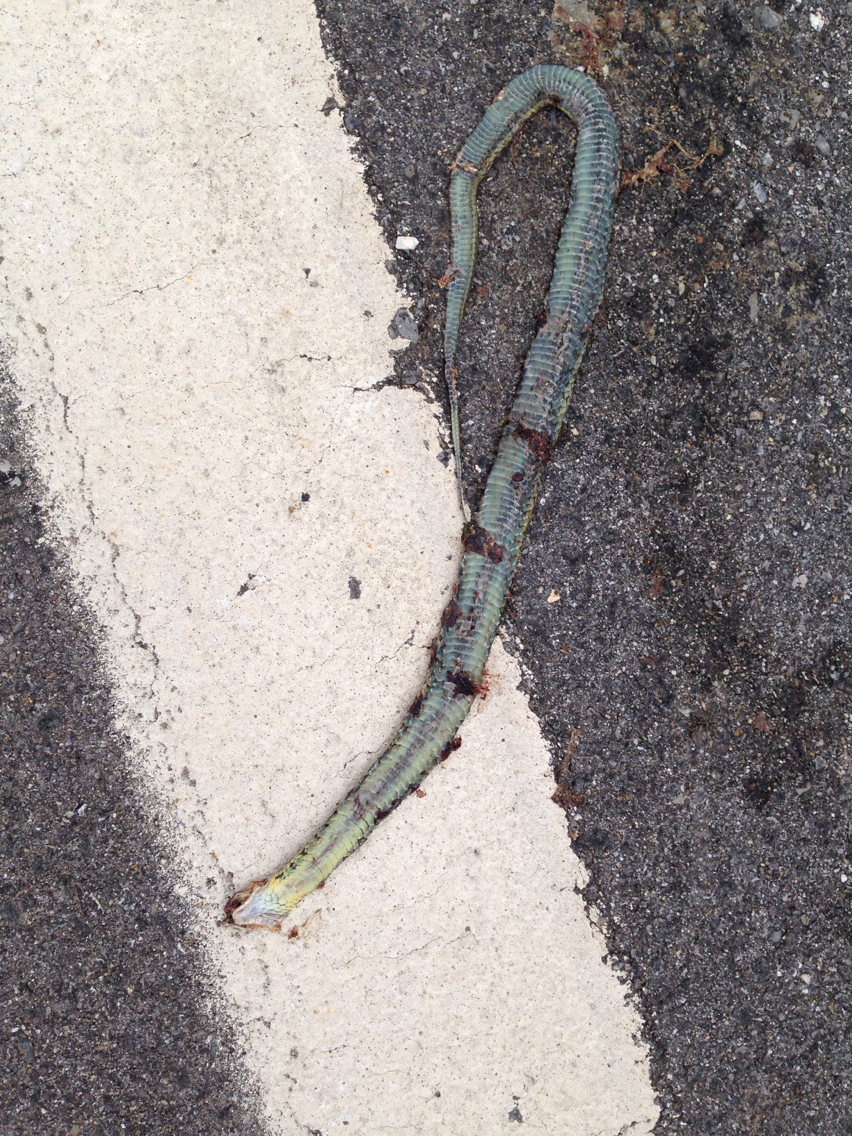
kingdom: Animalia
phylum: Chordata
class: Squamata
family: Colubridae
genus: Thamnophis
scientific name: Thamnophis sirtalis
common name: Common garter snake
